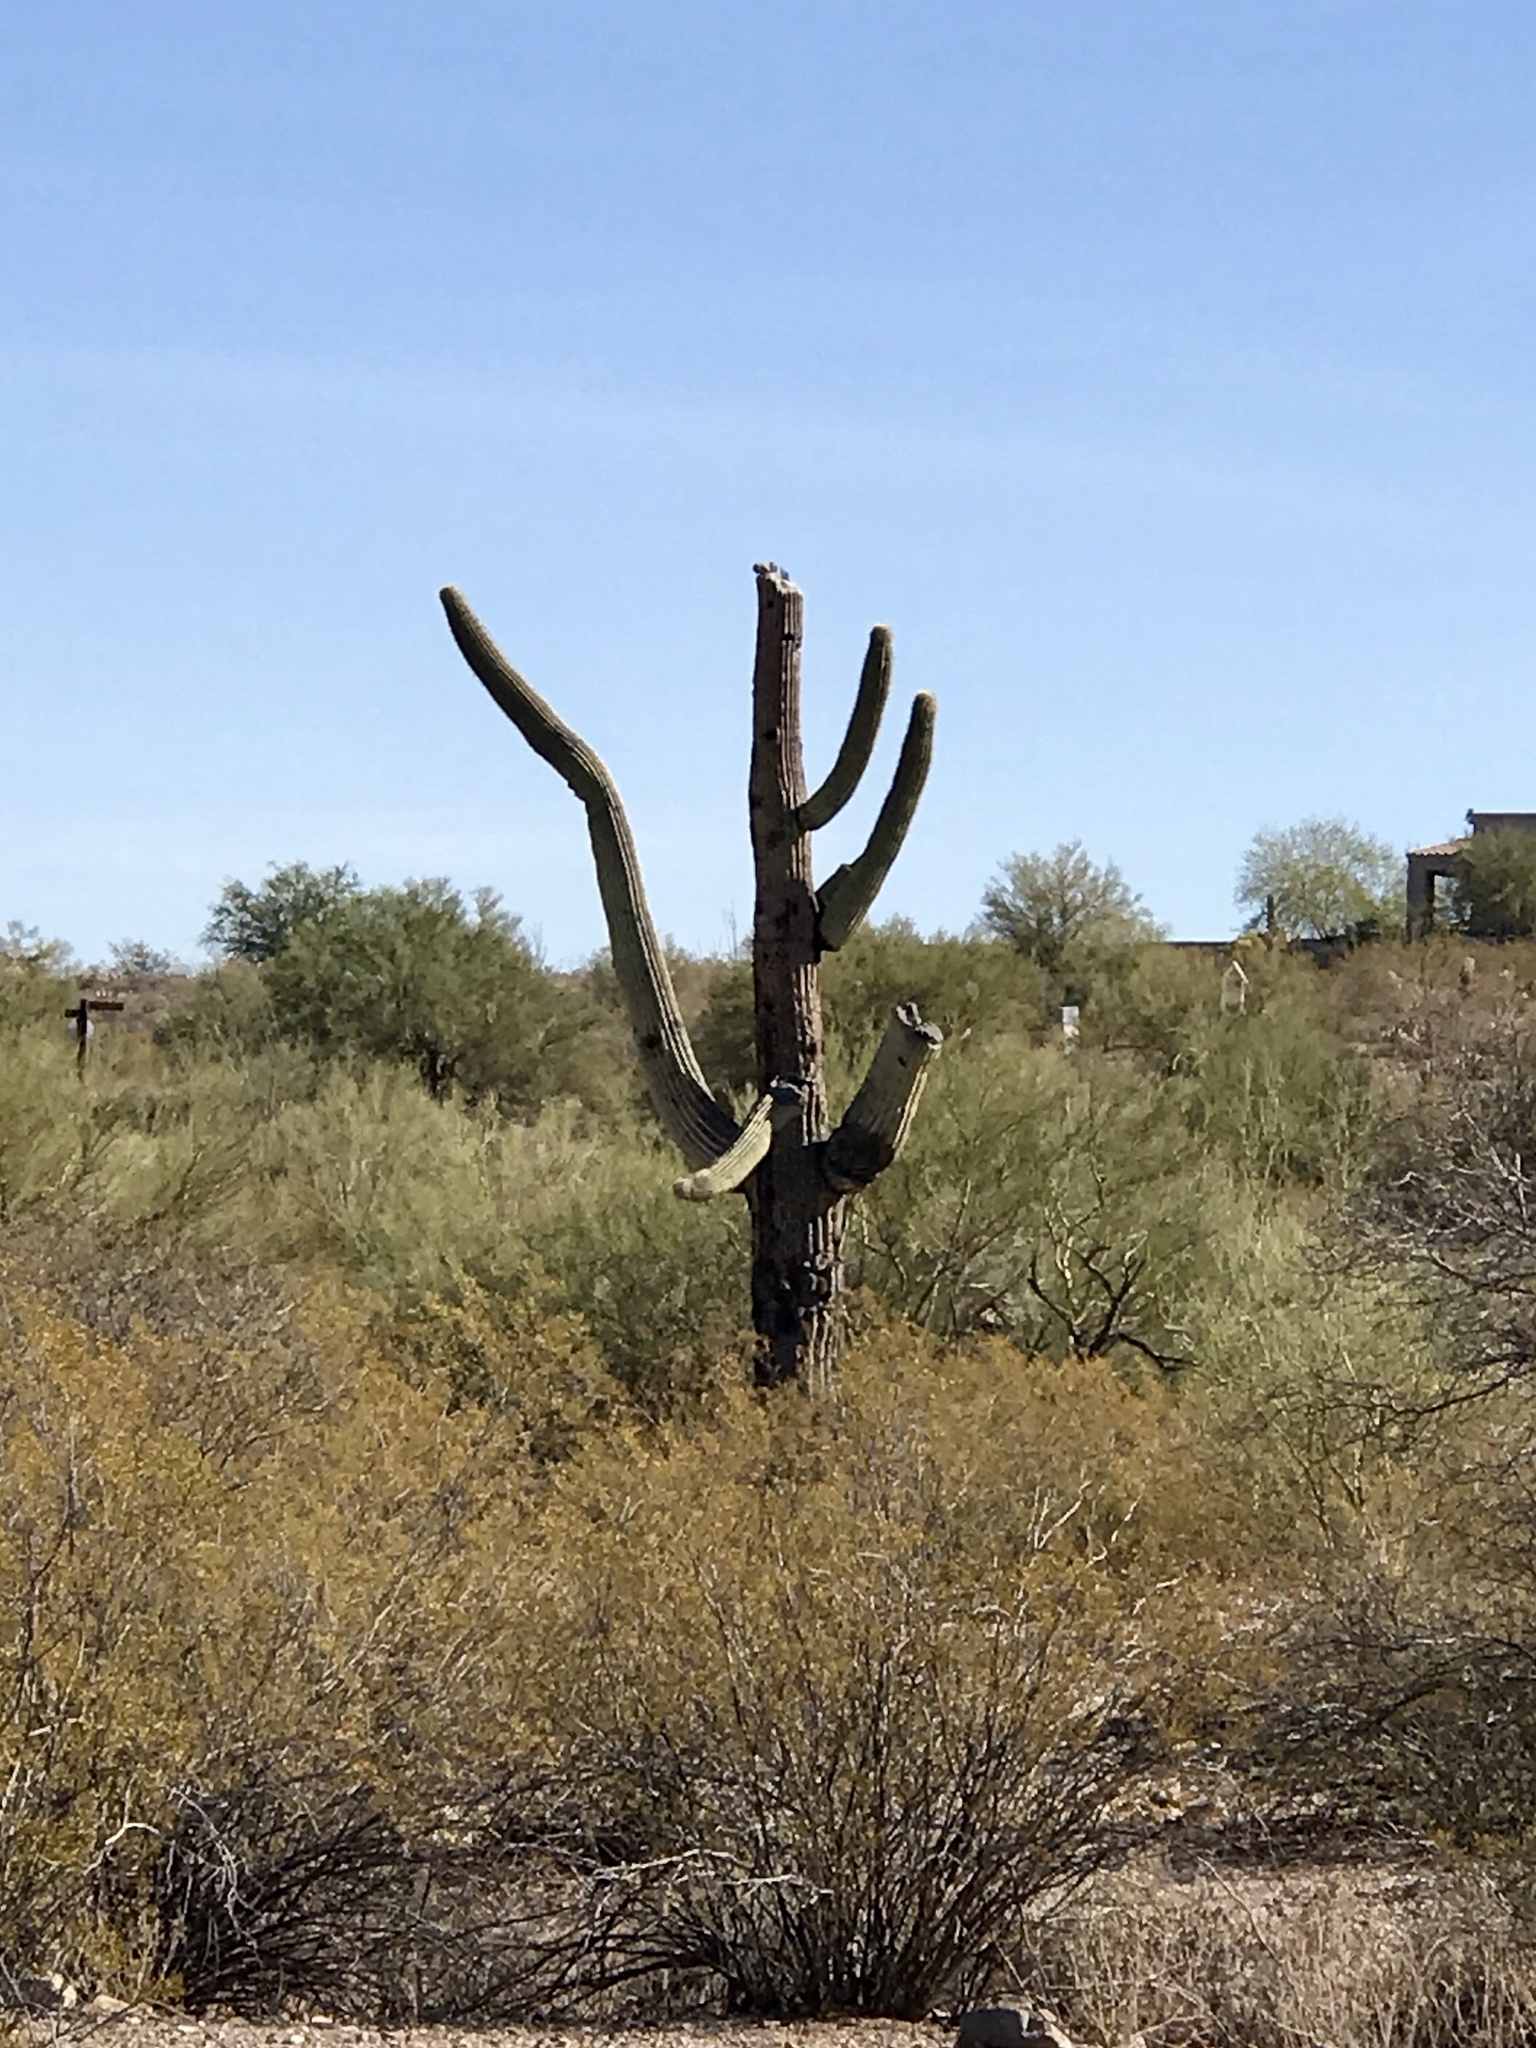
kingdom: Plantae
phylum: Tracheophyta
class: Magnoliopsida
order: Caryophyllales
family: Cactaceae
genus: Carnegiea
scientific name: Carnegiea gigantea
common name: Saguaro
